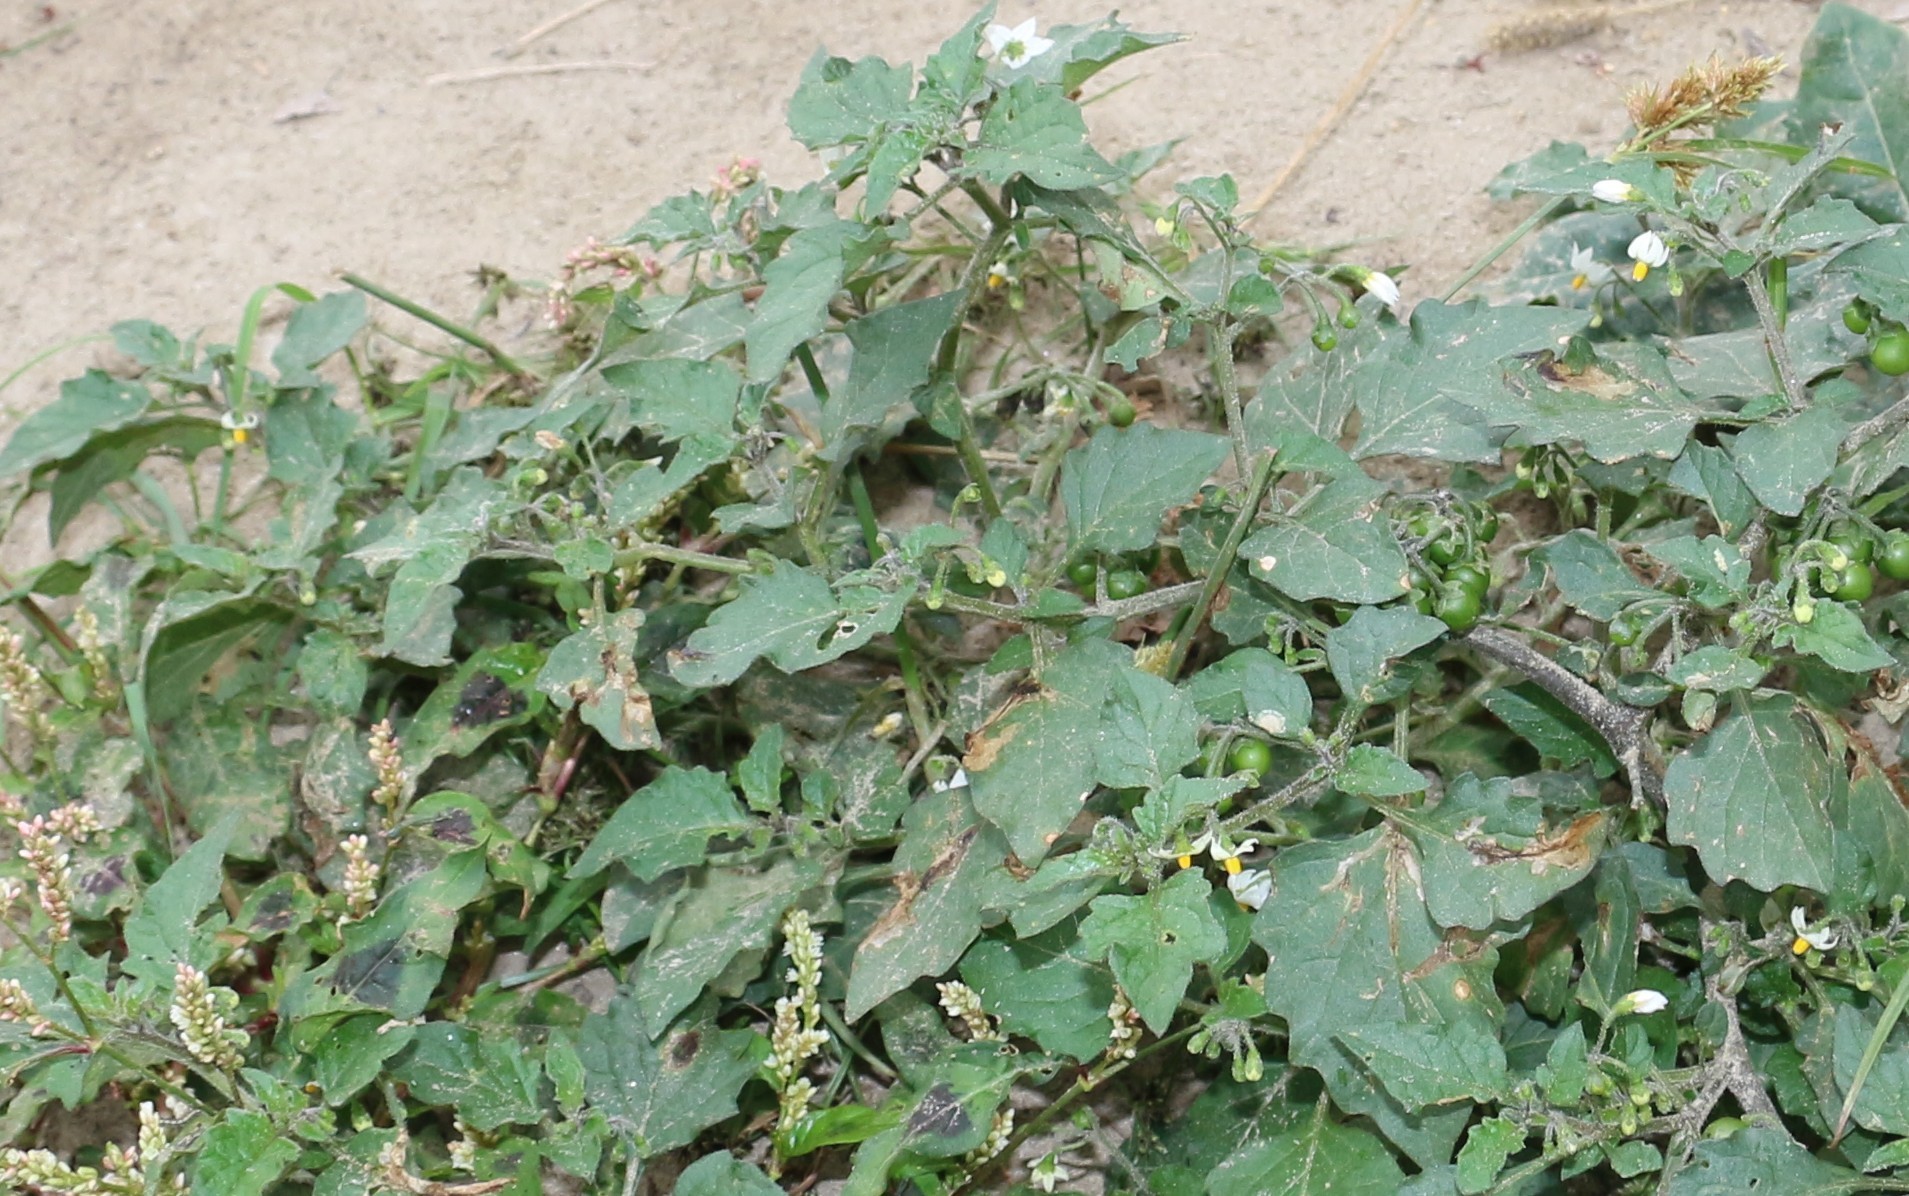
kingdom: Plantae
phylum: Tracheophyta
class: Magnoliopsida
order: Solanales
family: Solanaceae
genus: Solanum
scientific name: Solanum nigrum
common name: Black nightshade
